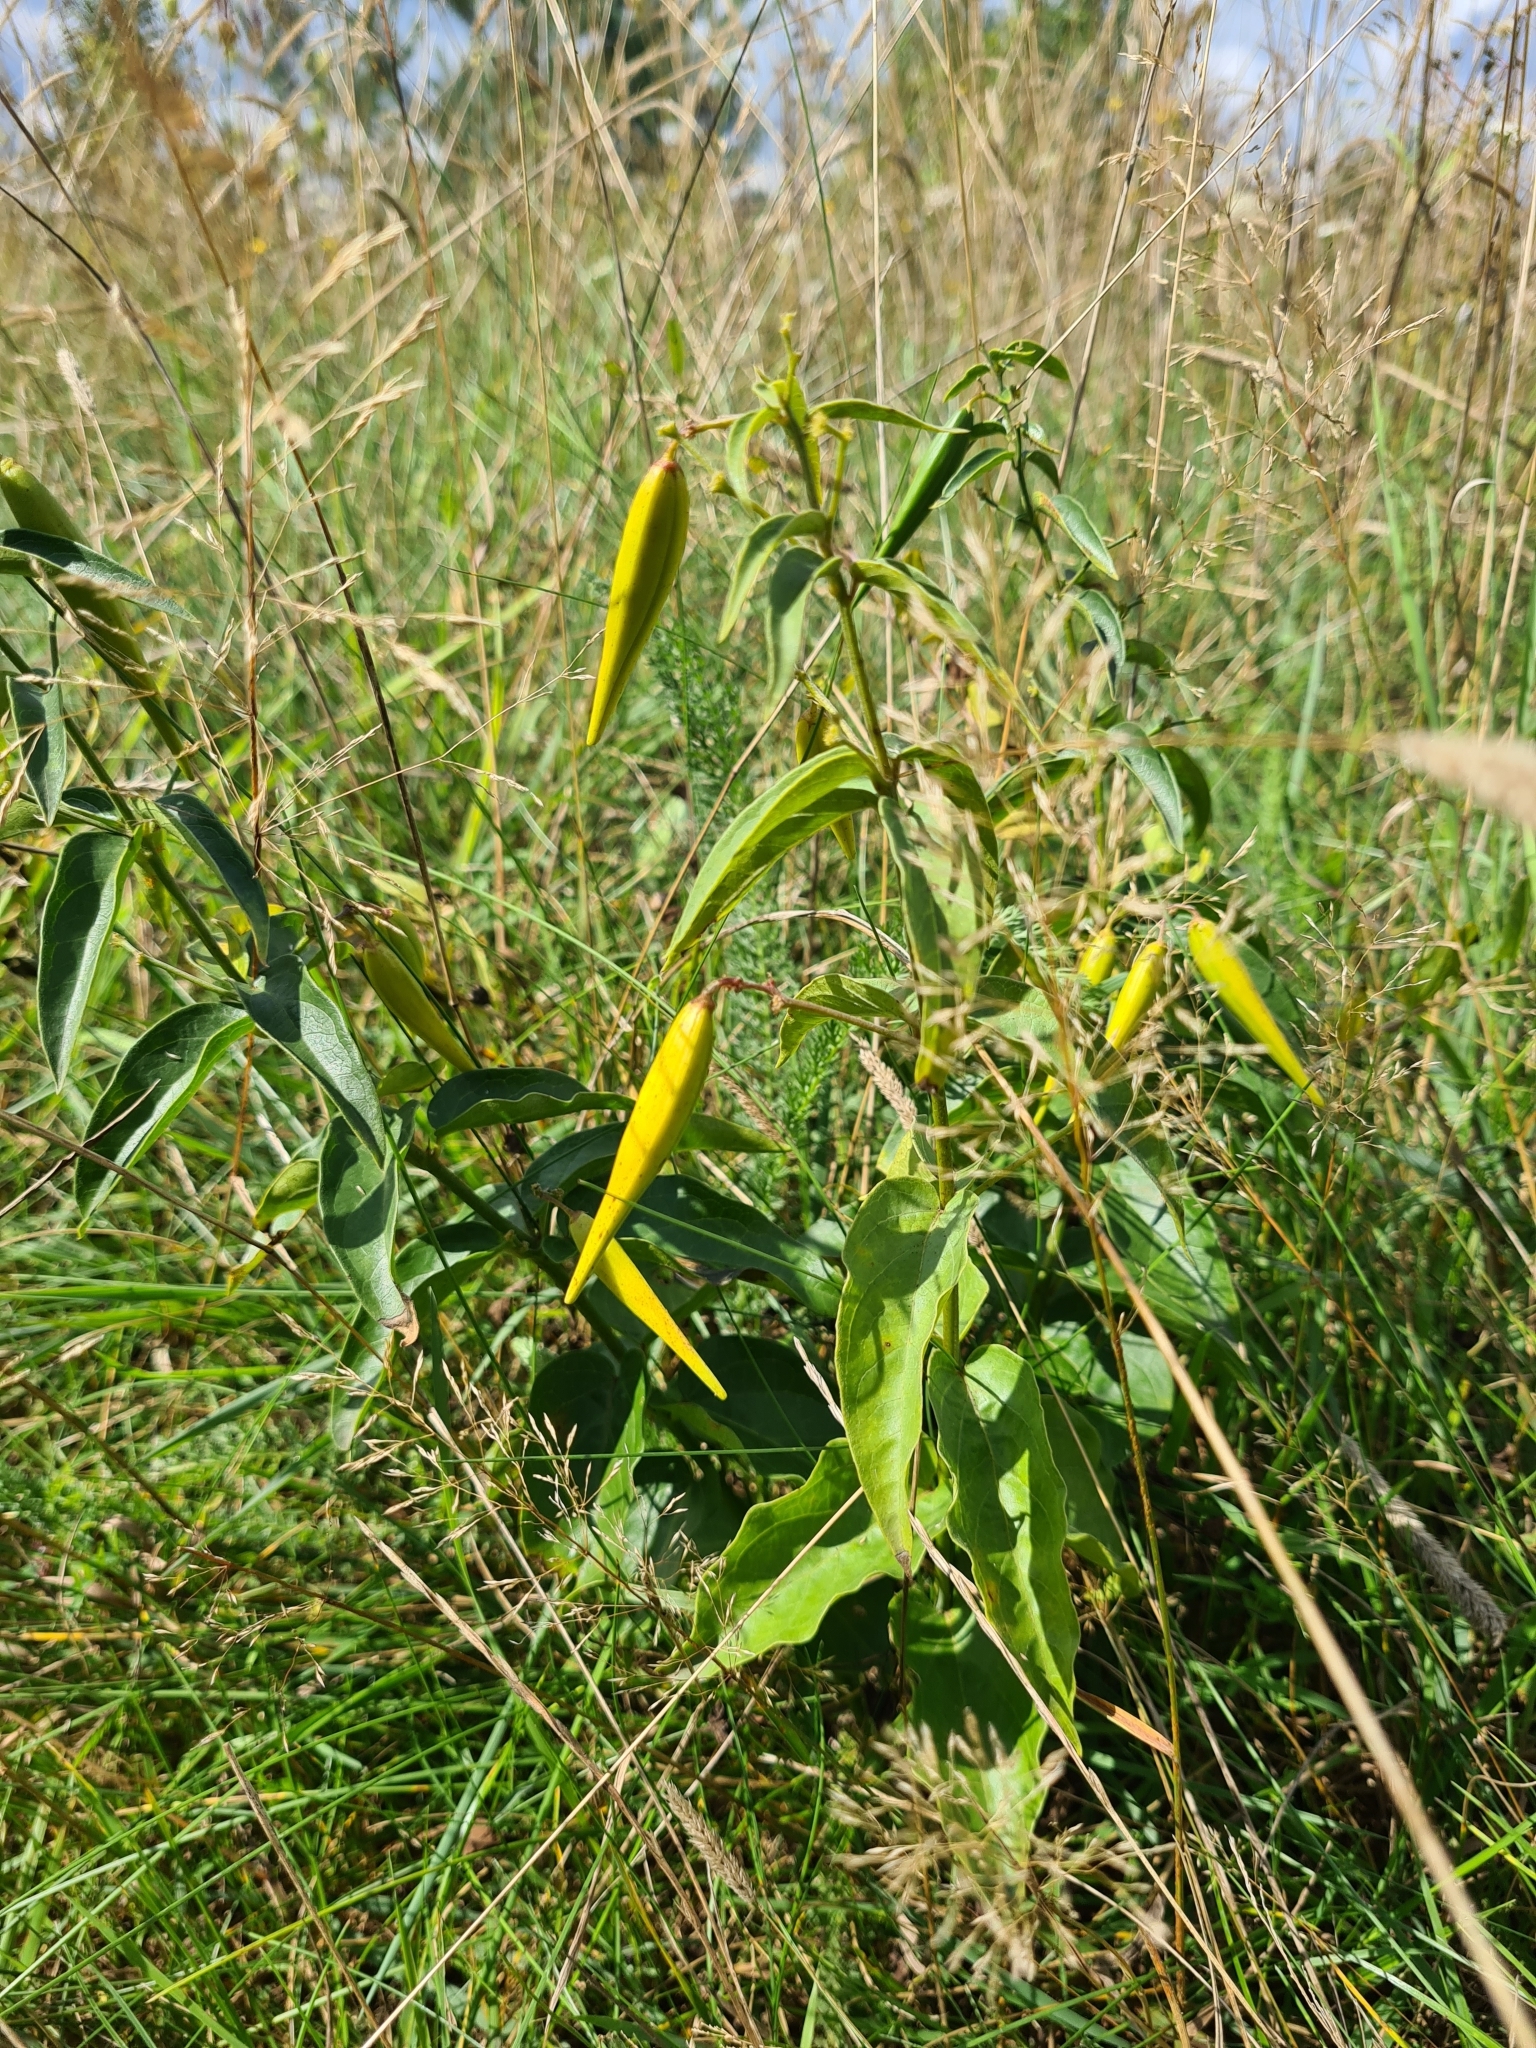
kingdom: Plantae
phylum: Tracheophyta
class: Magnoliopsida
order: Gentianales
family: Apocynaceae
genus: Vincetoxicum
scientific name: Vincetoxicum hirundinaria
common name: White swallowwort
